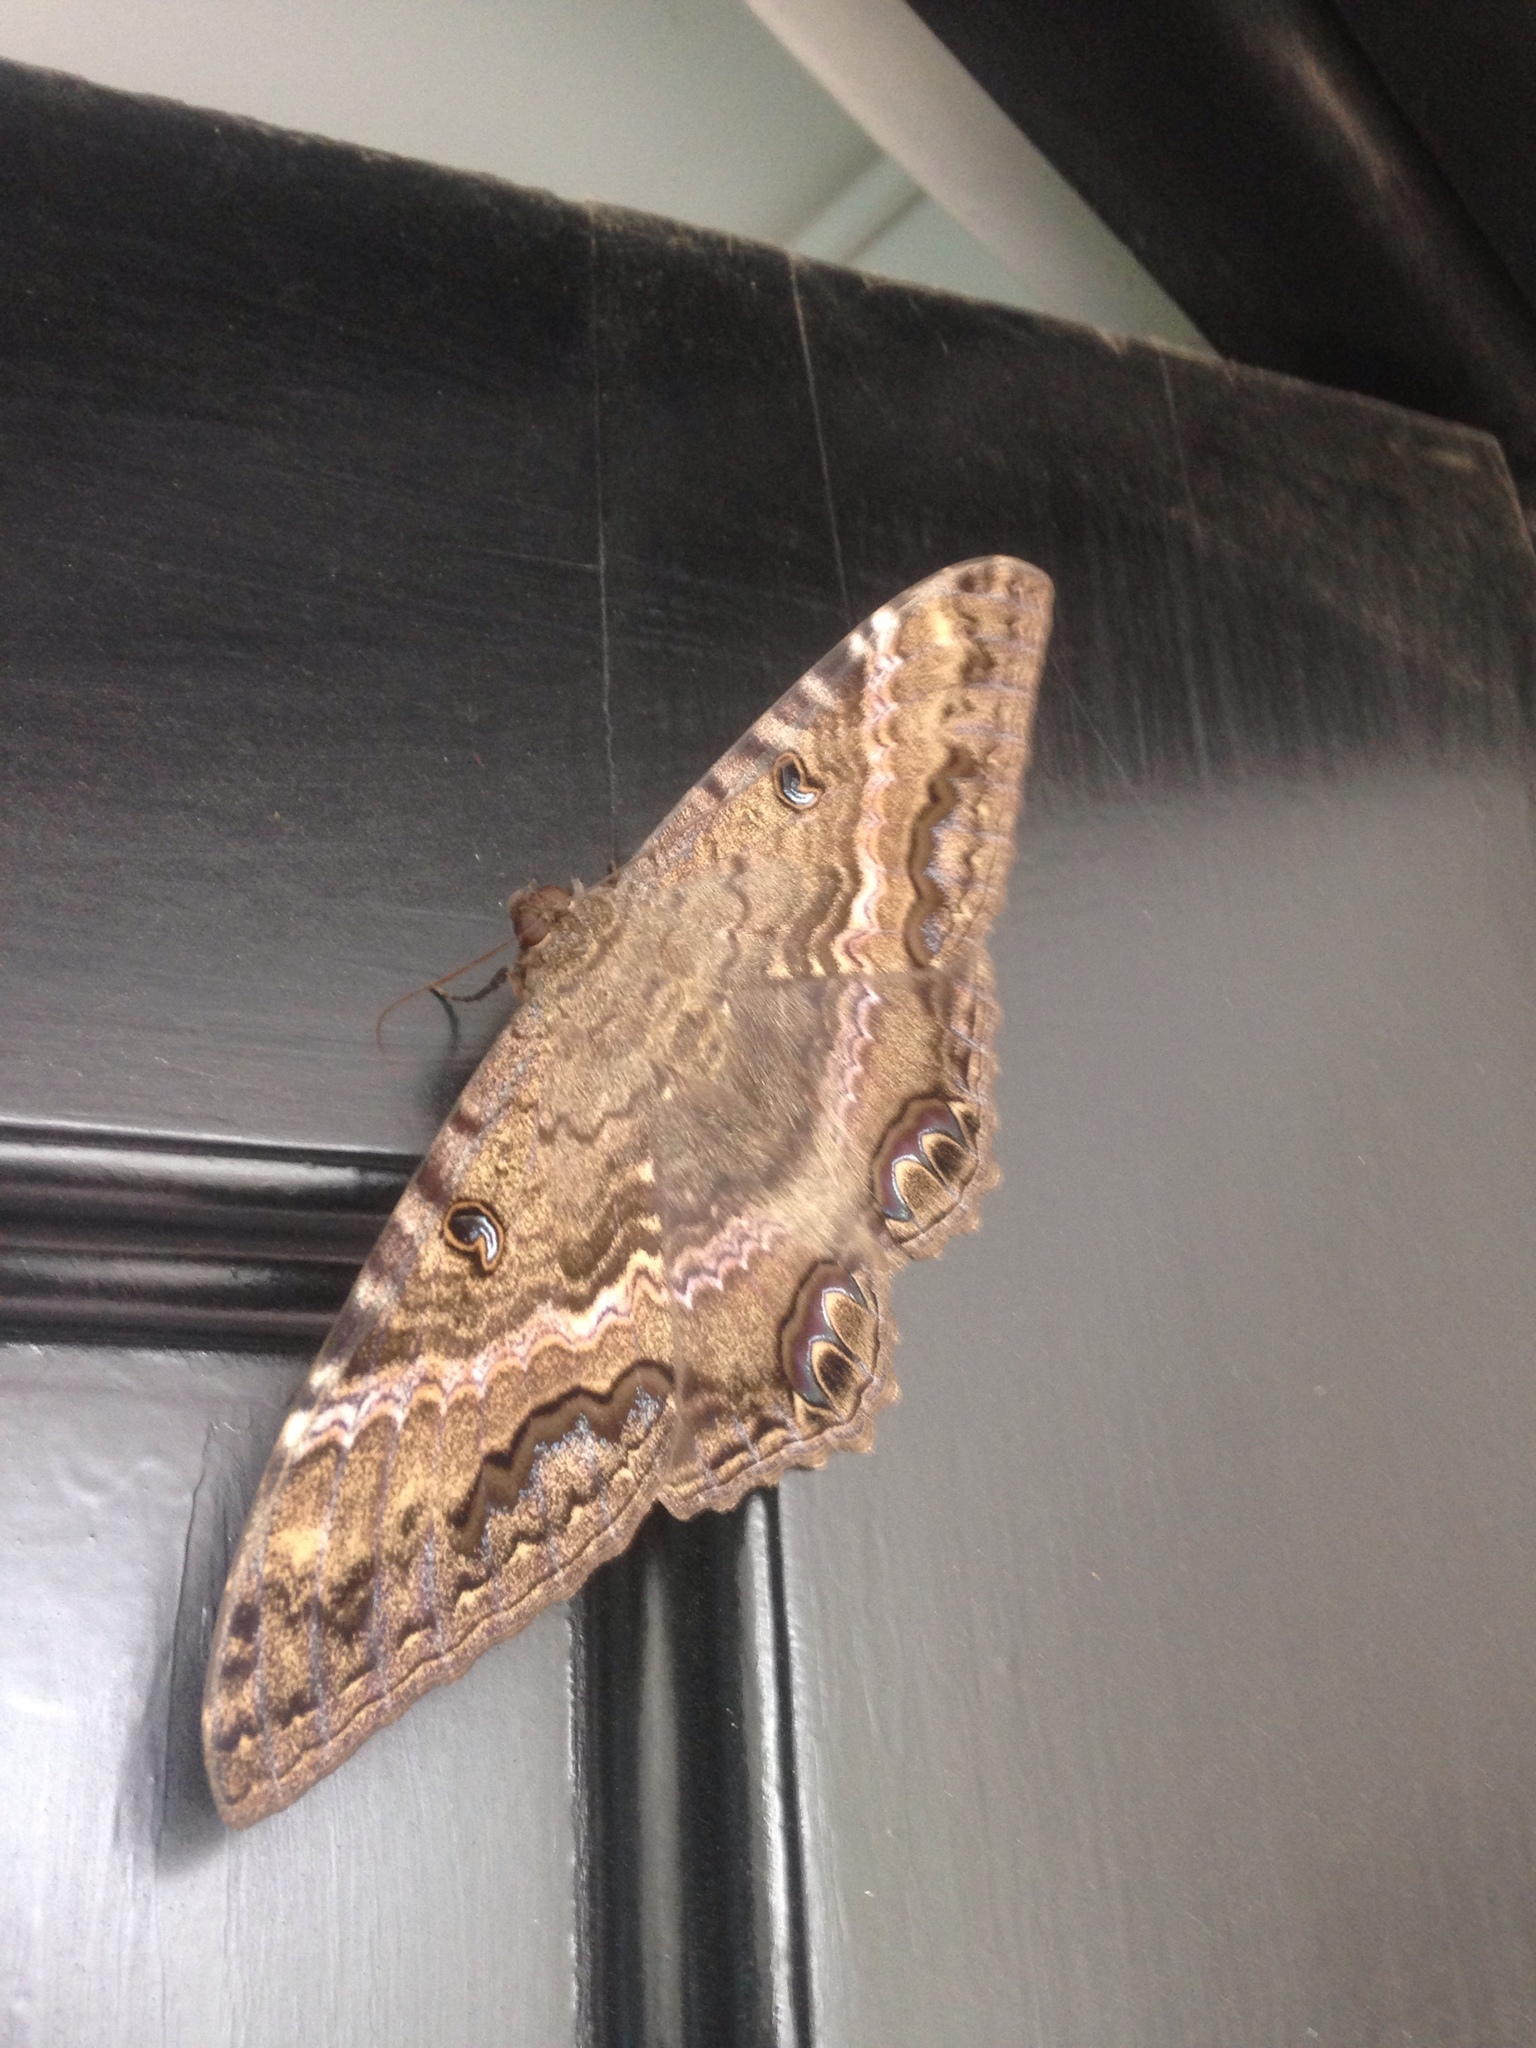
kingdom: Animalia
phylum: Arthropoda
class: Insecta
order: Lepidoptera
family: Erebidae
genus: Ascalapha
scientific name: Ascalapha odorata
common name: Black witch
